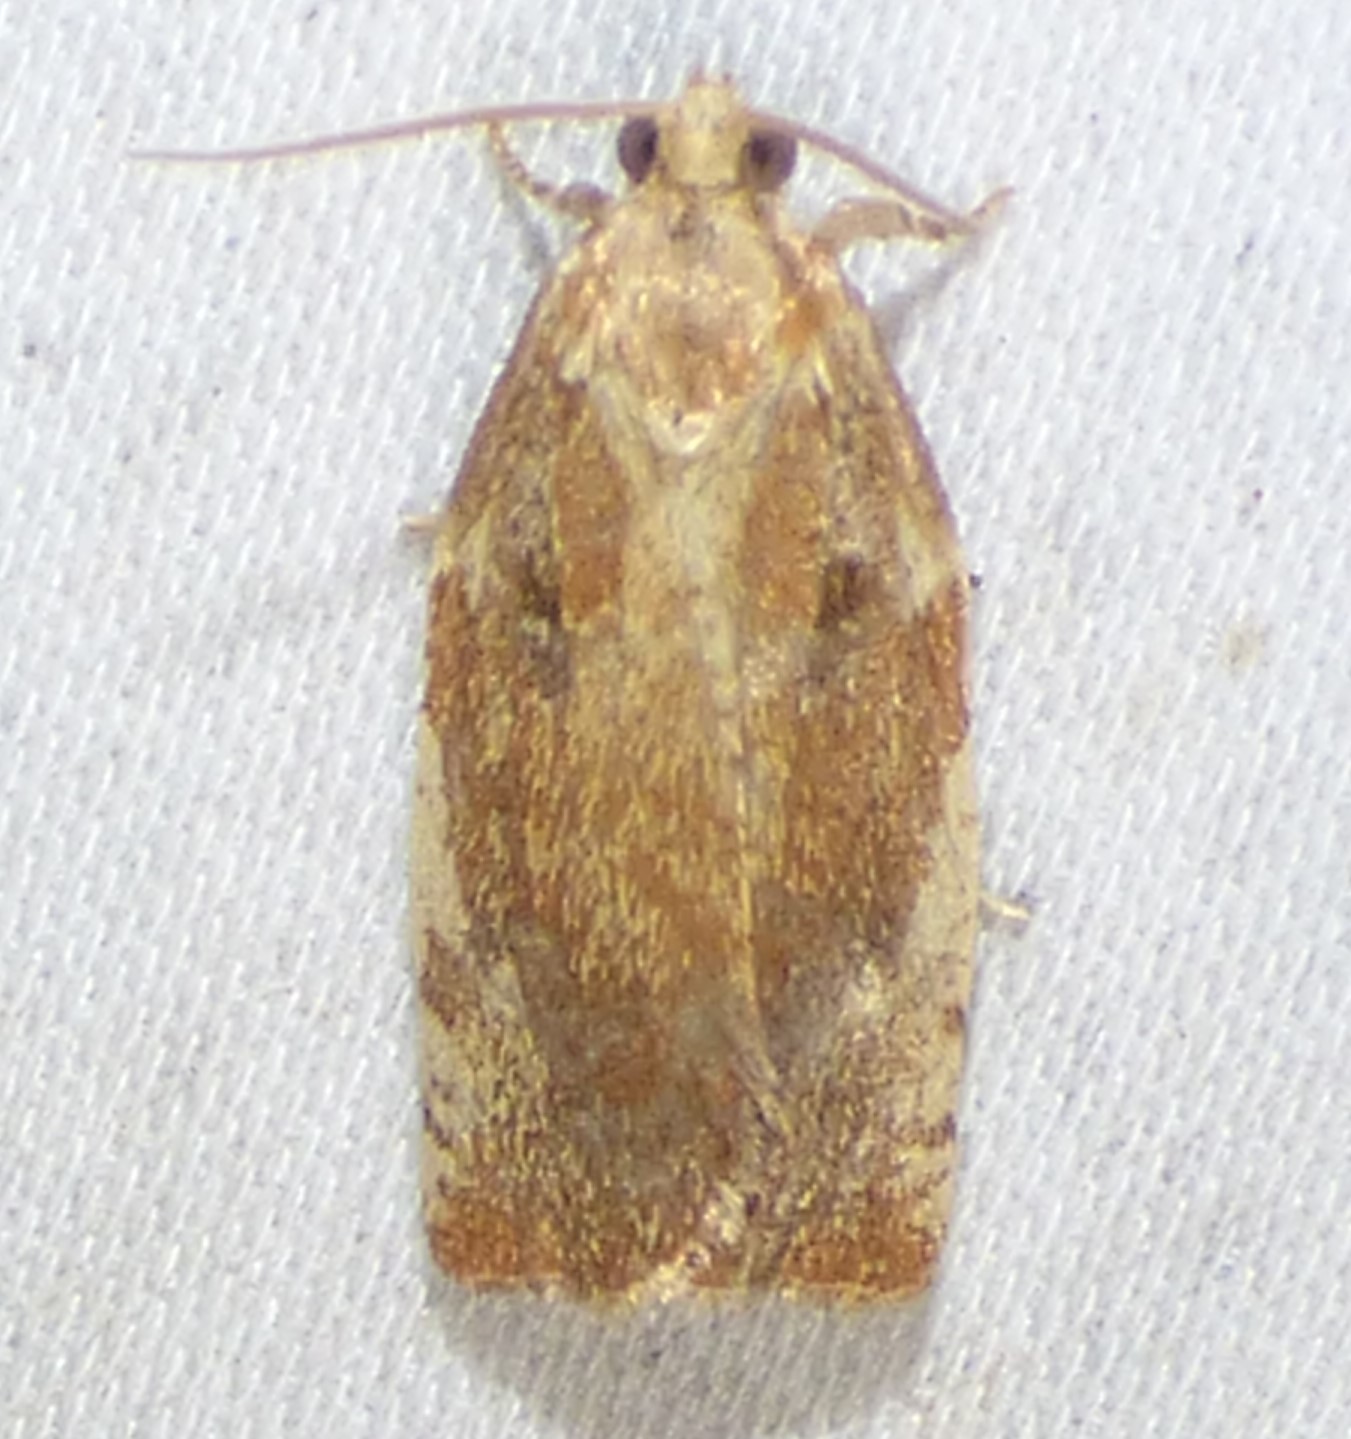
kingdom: Animalia
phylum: Arthropoda
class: Insecta
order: Lepidoptera
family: Tortricidae
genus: Archips
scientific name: Archips semiferanus
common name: Oak leafroller
